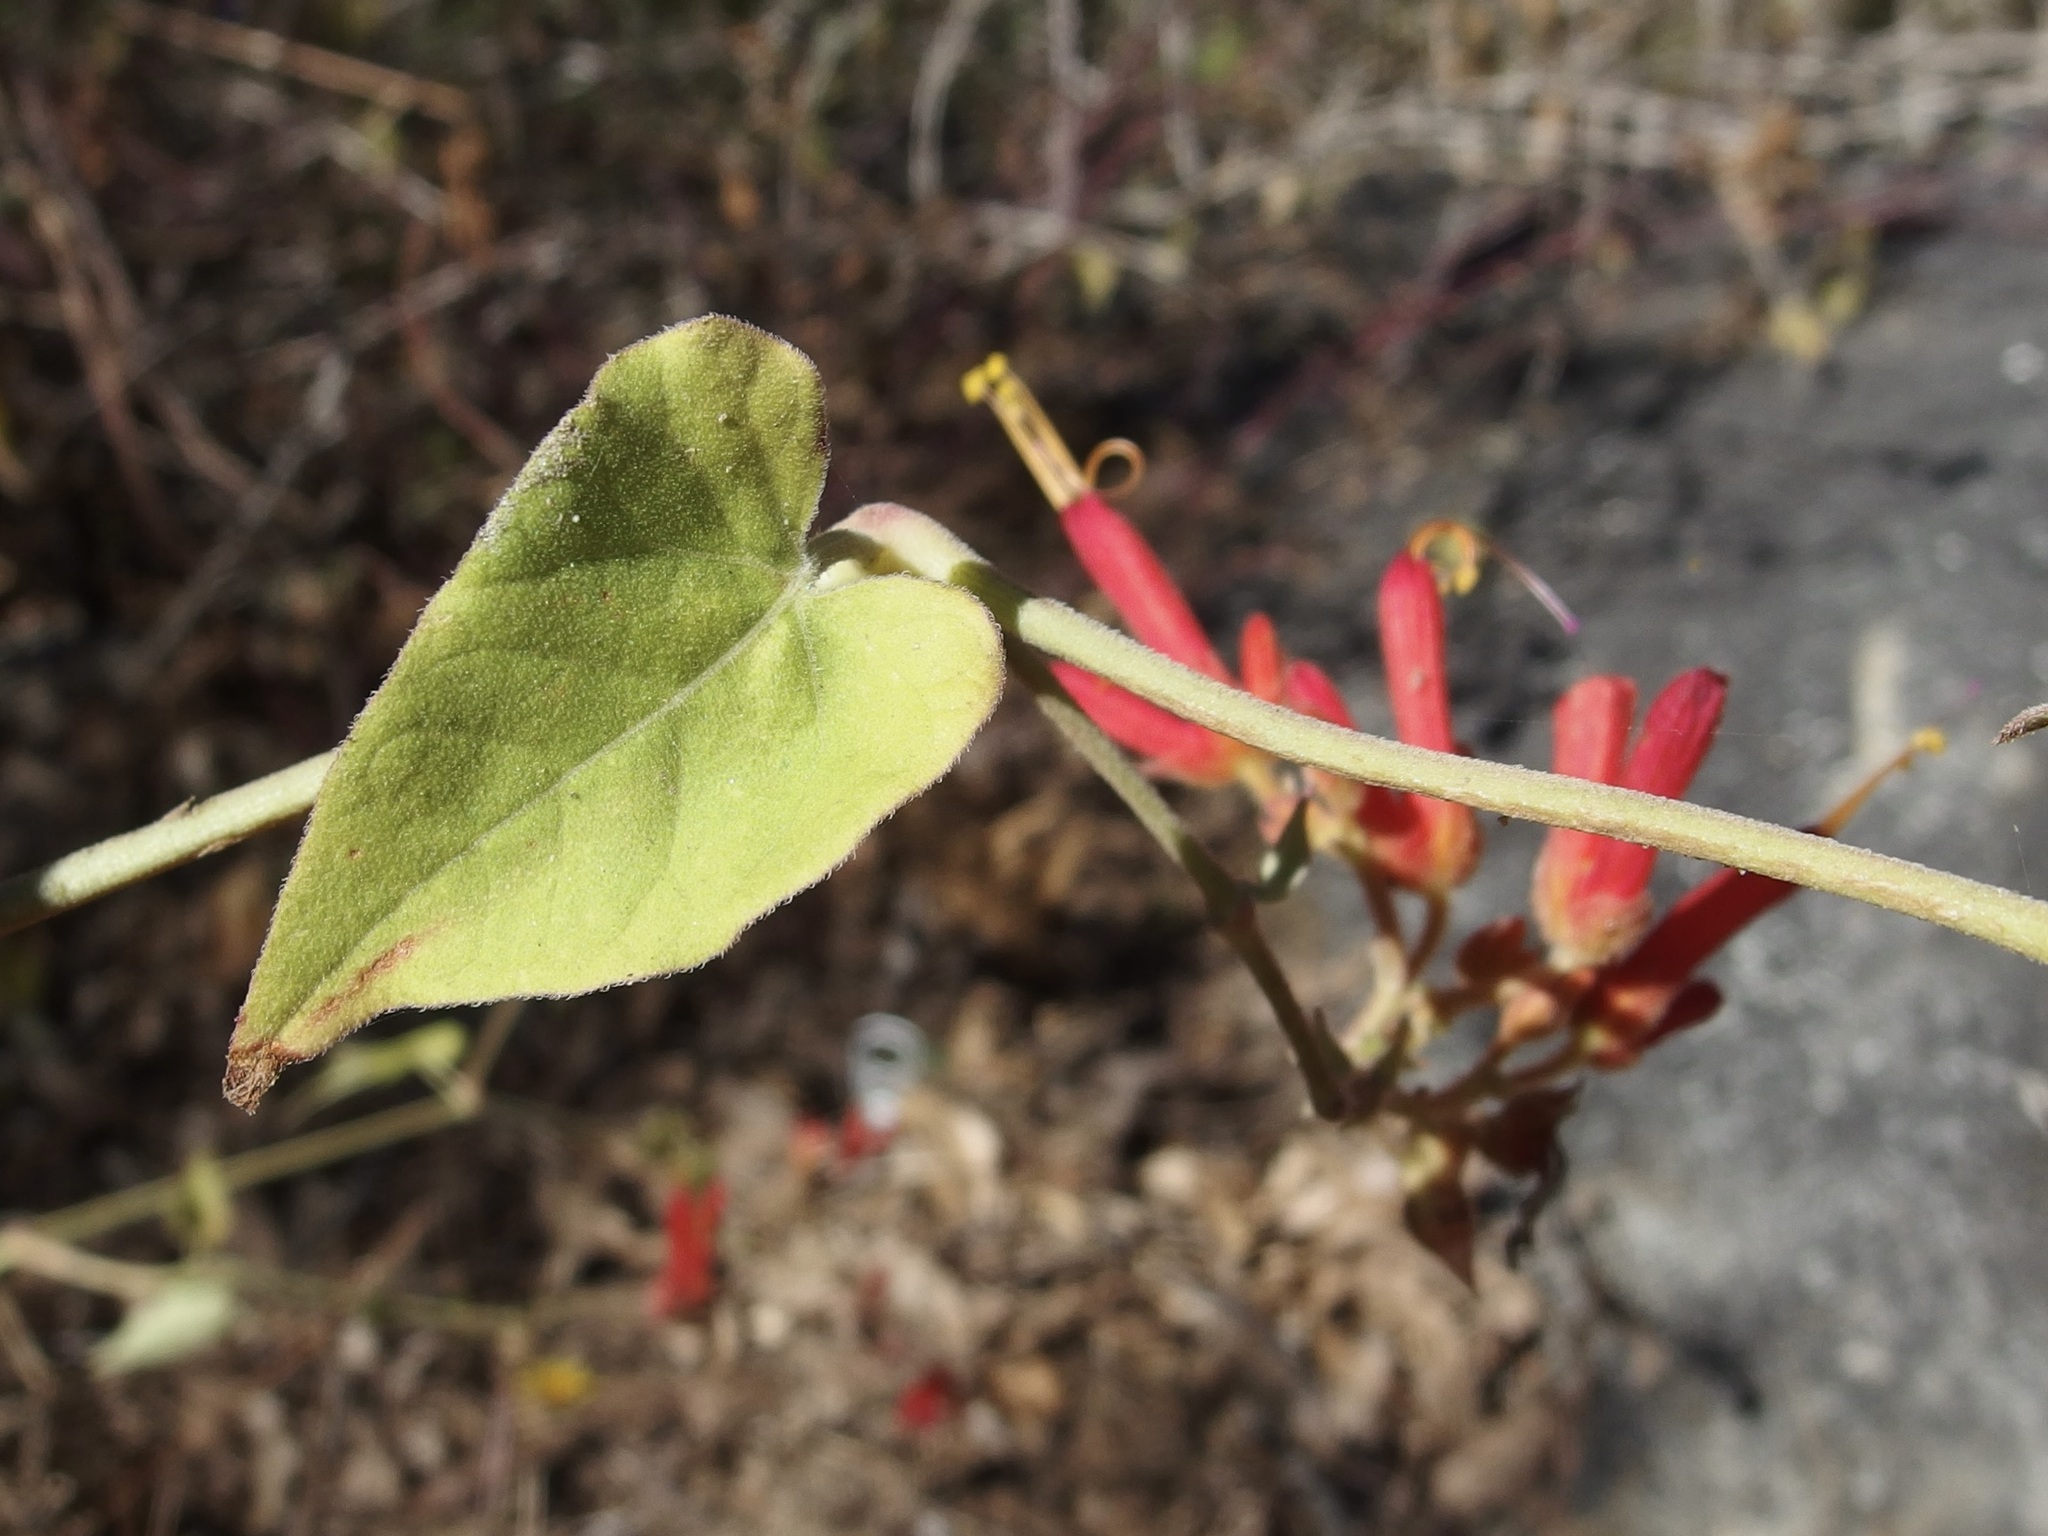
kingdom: Plantae
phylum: Tracheophyta
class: Magnoliopsida
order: Caryophyllales
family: Nyctaginaceae
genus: Mirabilis
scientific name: Mirabilis triflora
